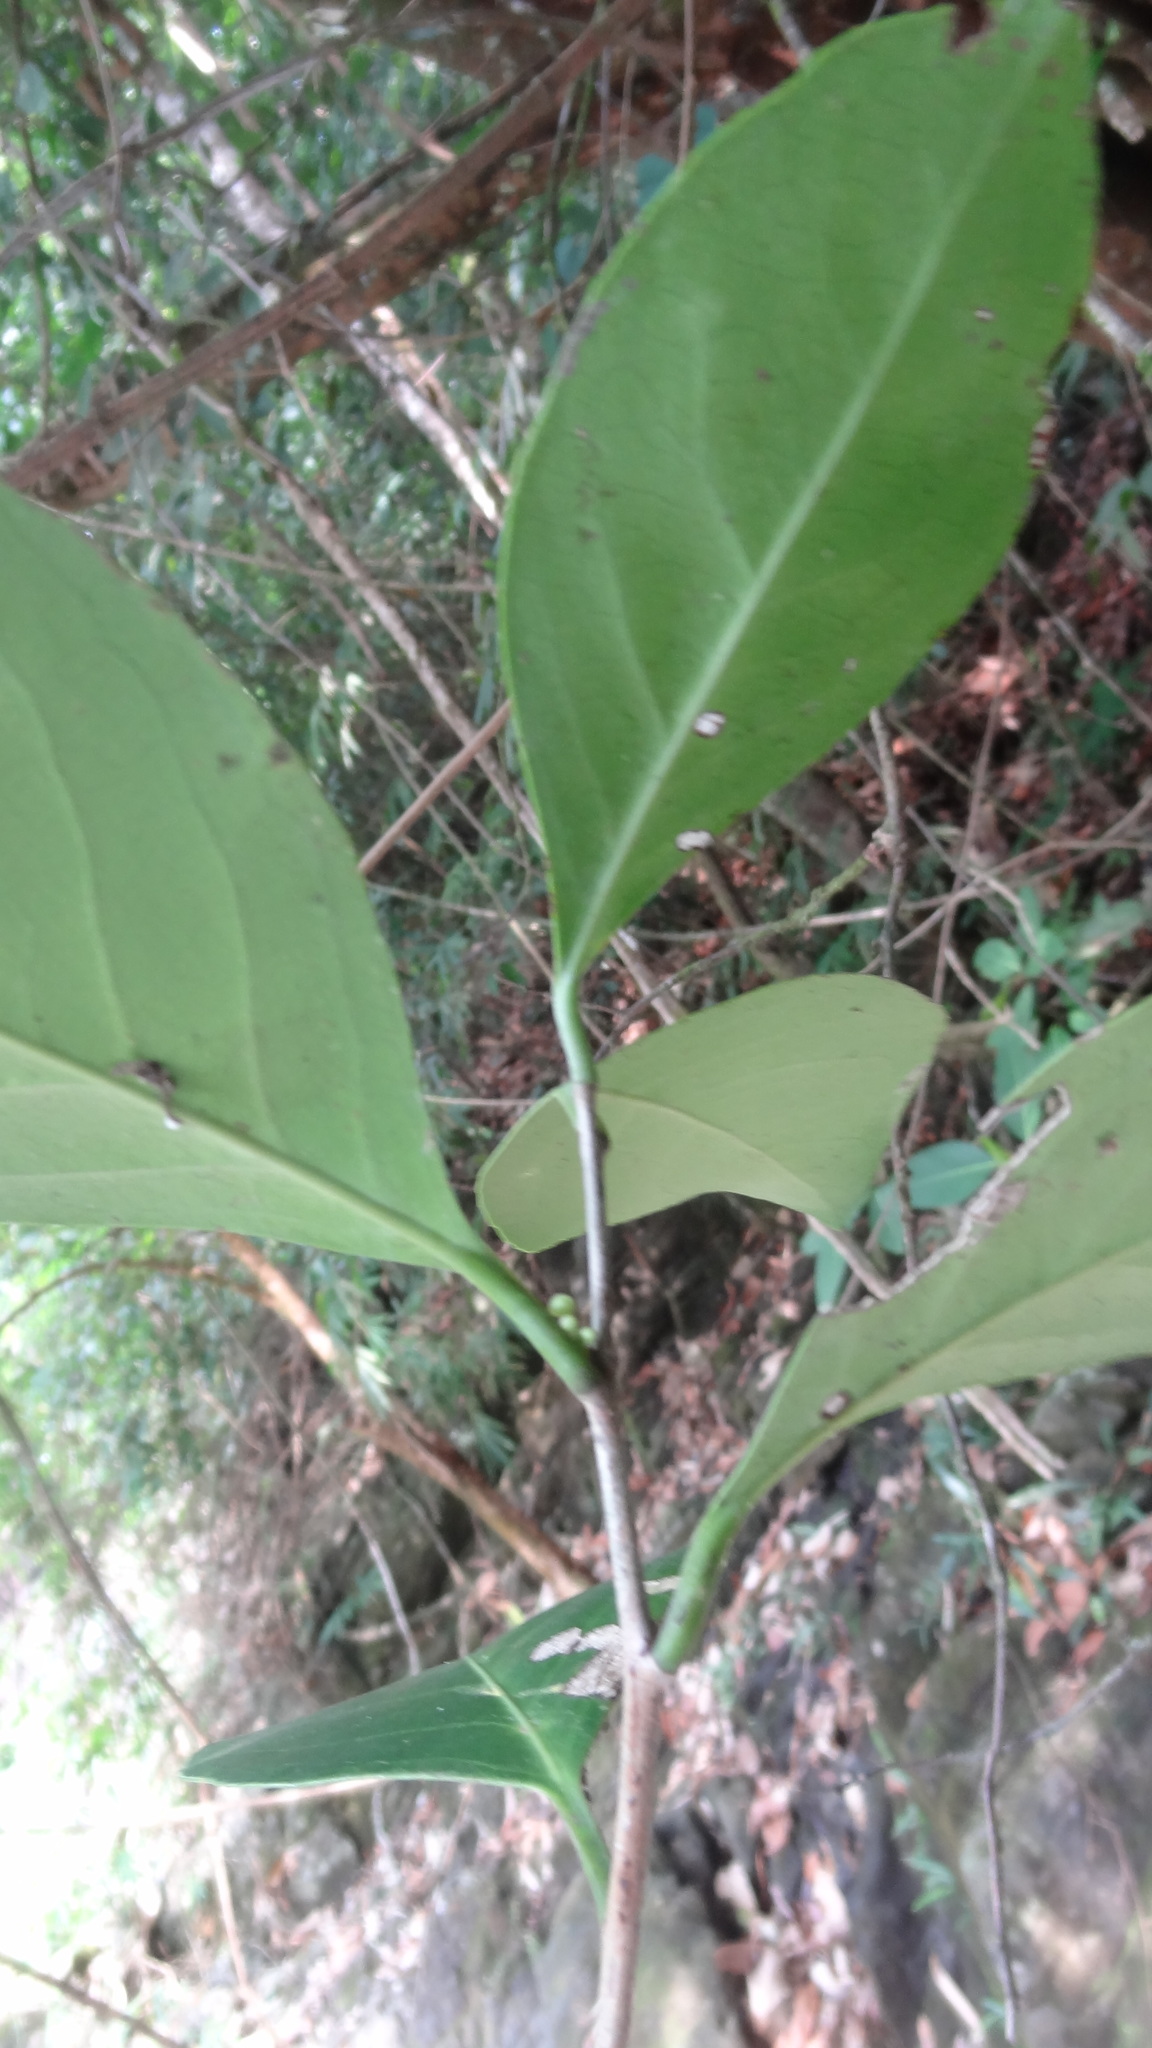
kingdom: Plantae
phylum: Tracheophyta
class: Magnoliopsida
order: Celastrales
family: Celastraceae
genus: Gymnosporia
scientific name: Gymnosporia rothiana
